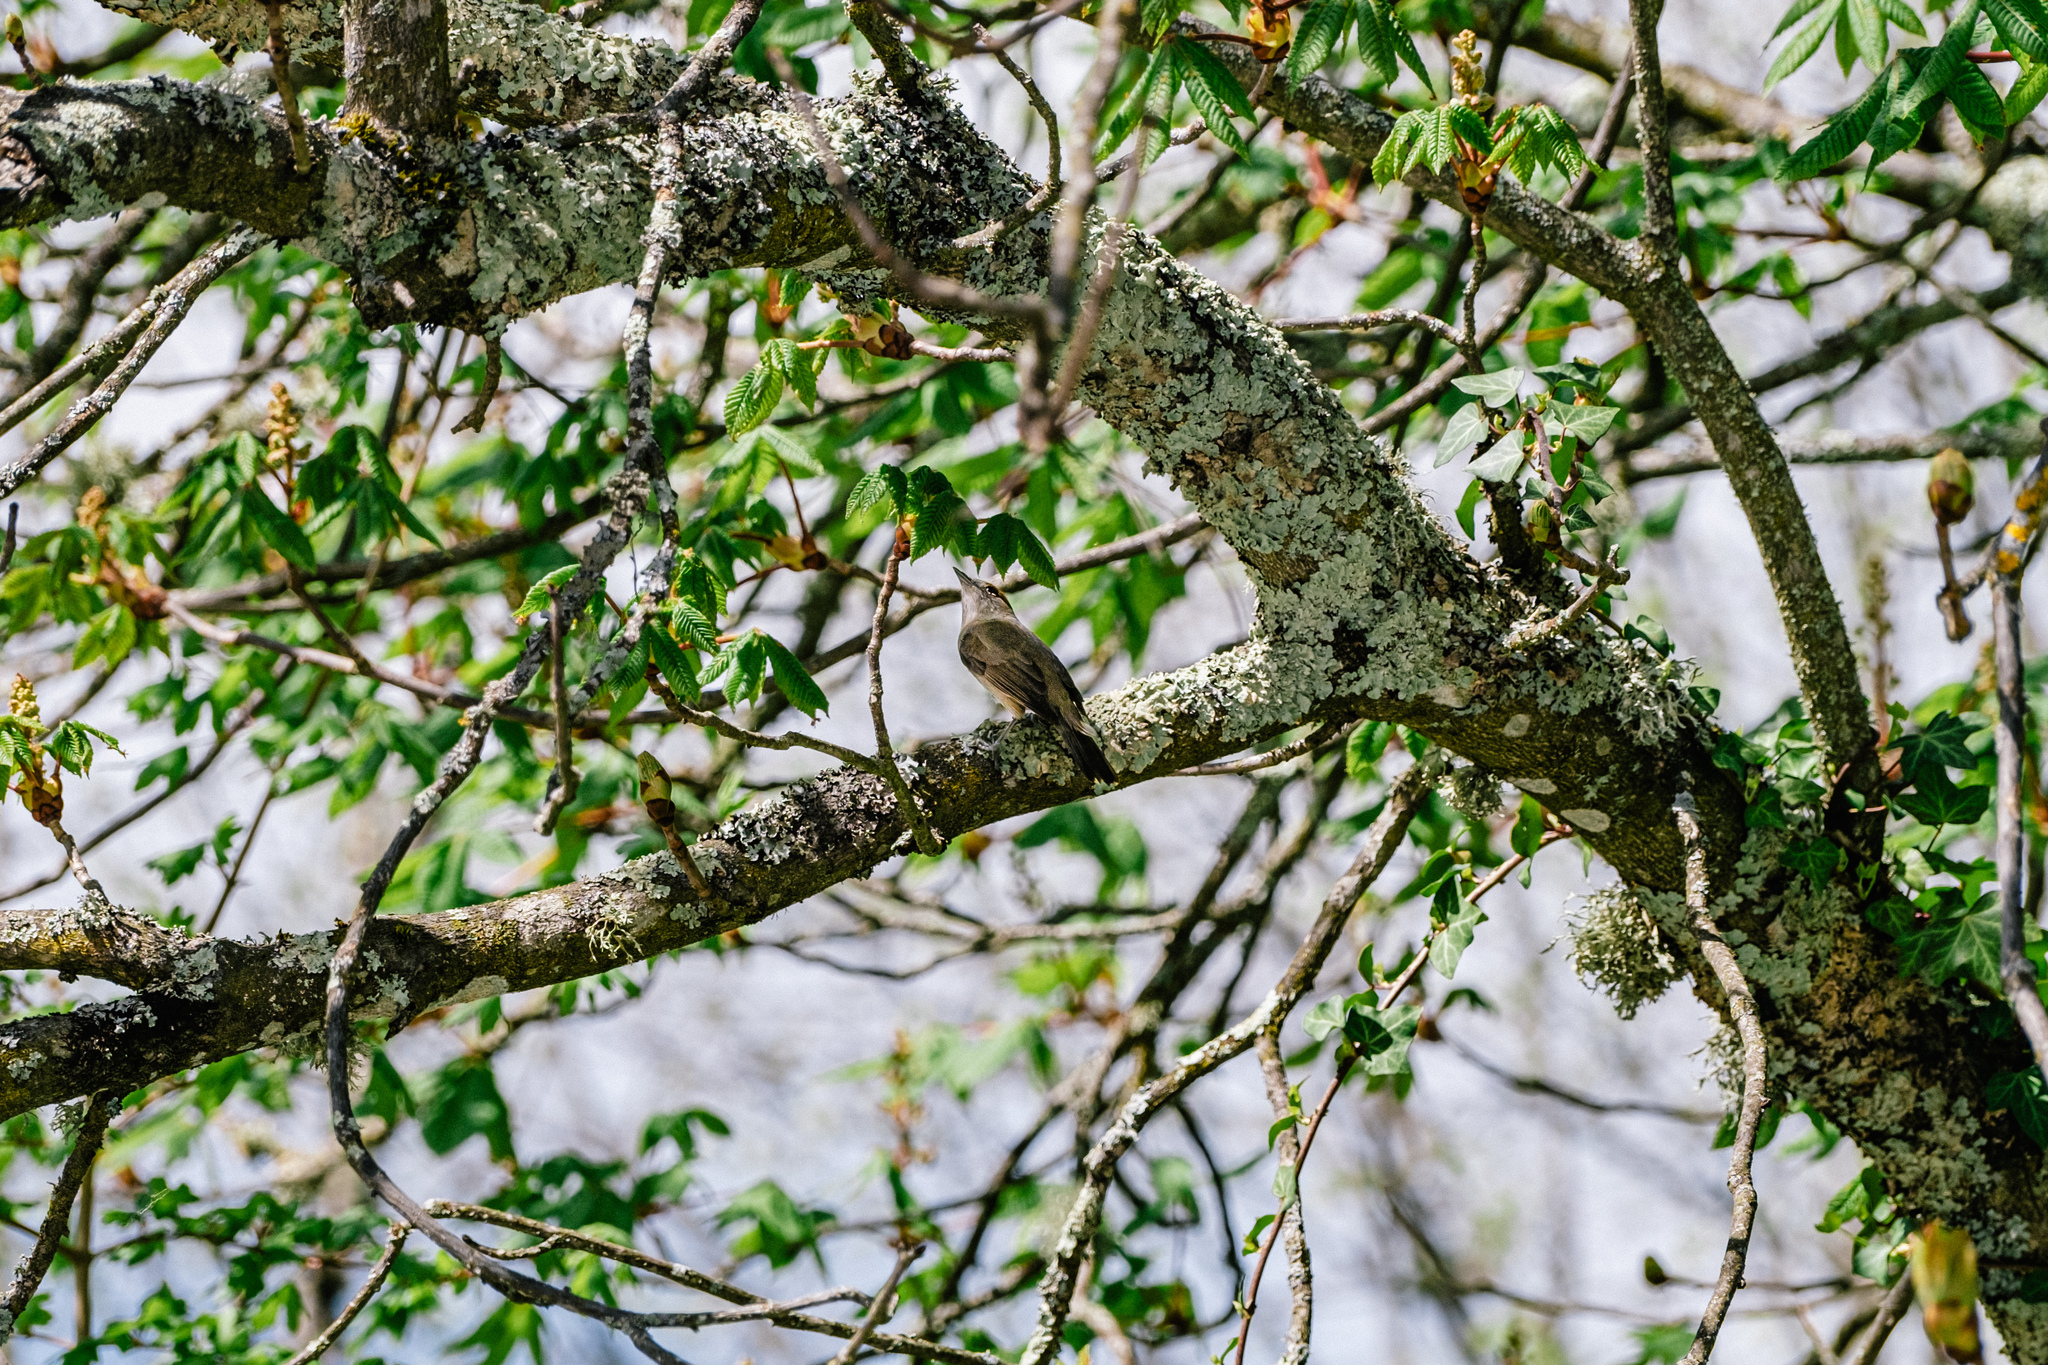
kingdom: Animalia
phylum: Chordata
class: Aves
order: Passeriformes
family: Sylviidae
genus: Sylvia
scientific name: Sylvia atricapilla
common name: Eurasian blackcap
